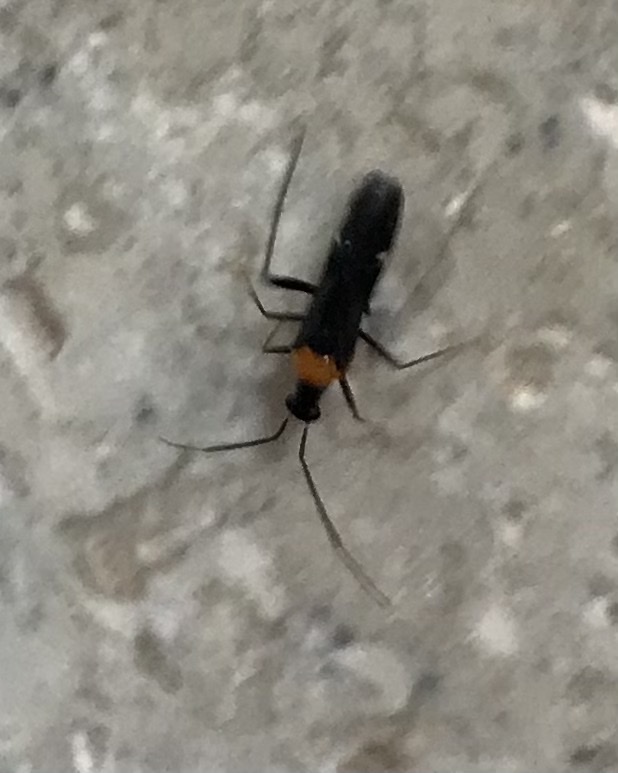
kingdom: Animalia
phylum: Arthropoda
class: Insecta
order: Hemiptera
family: Miridae
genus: Pseudoxenetus
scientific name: Pseudoxenetus regalis
